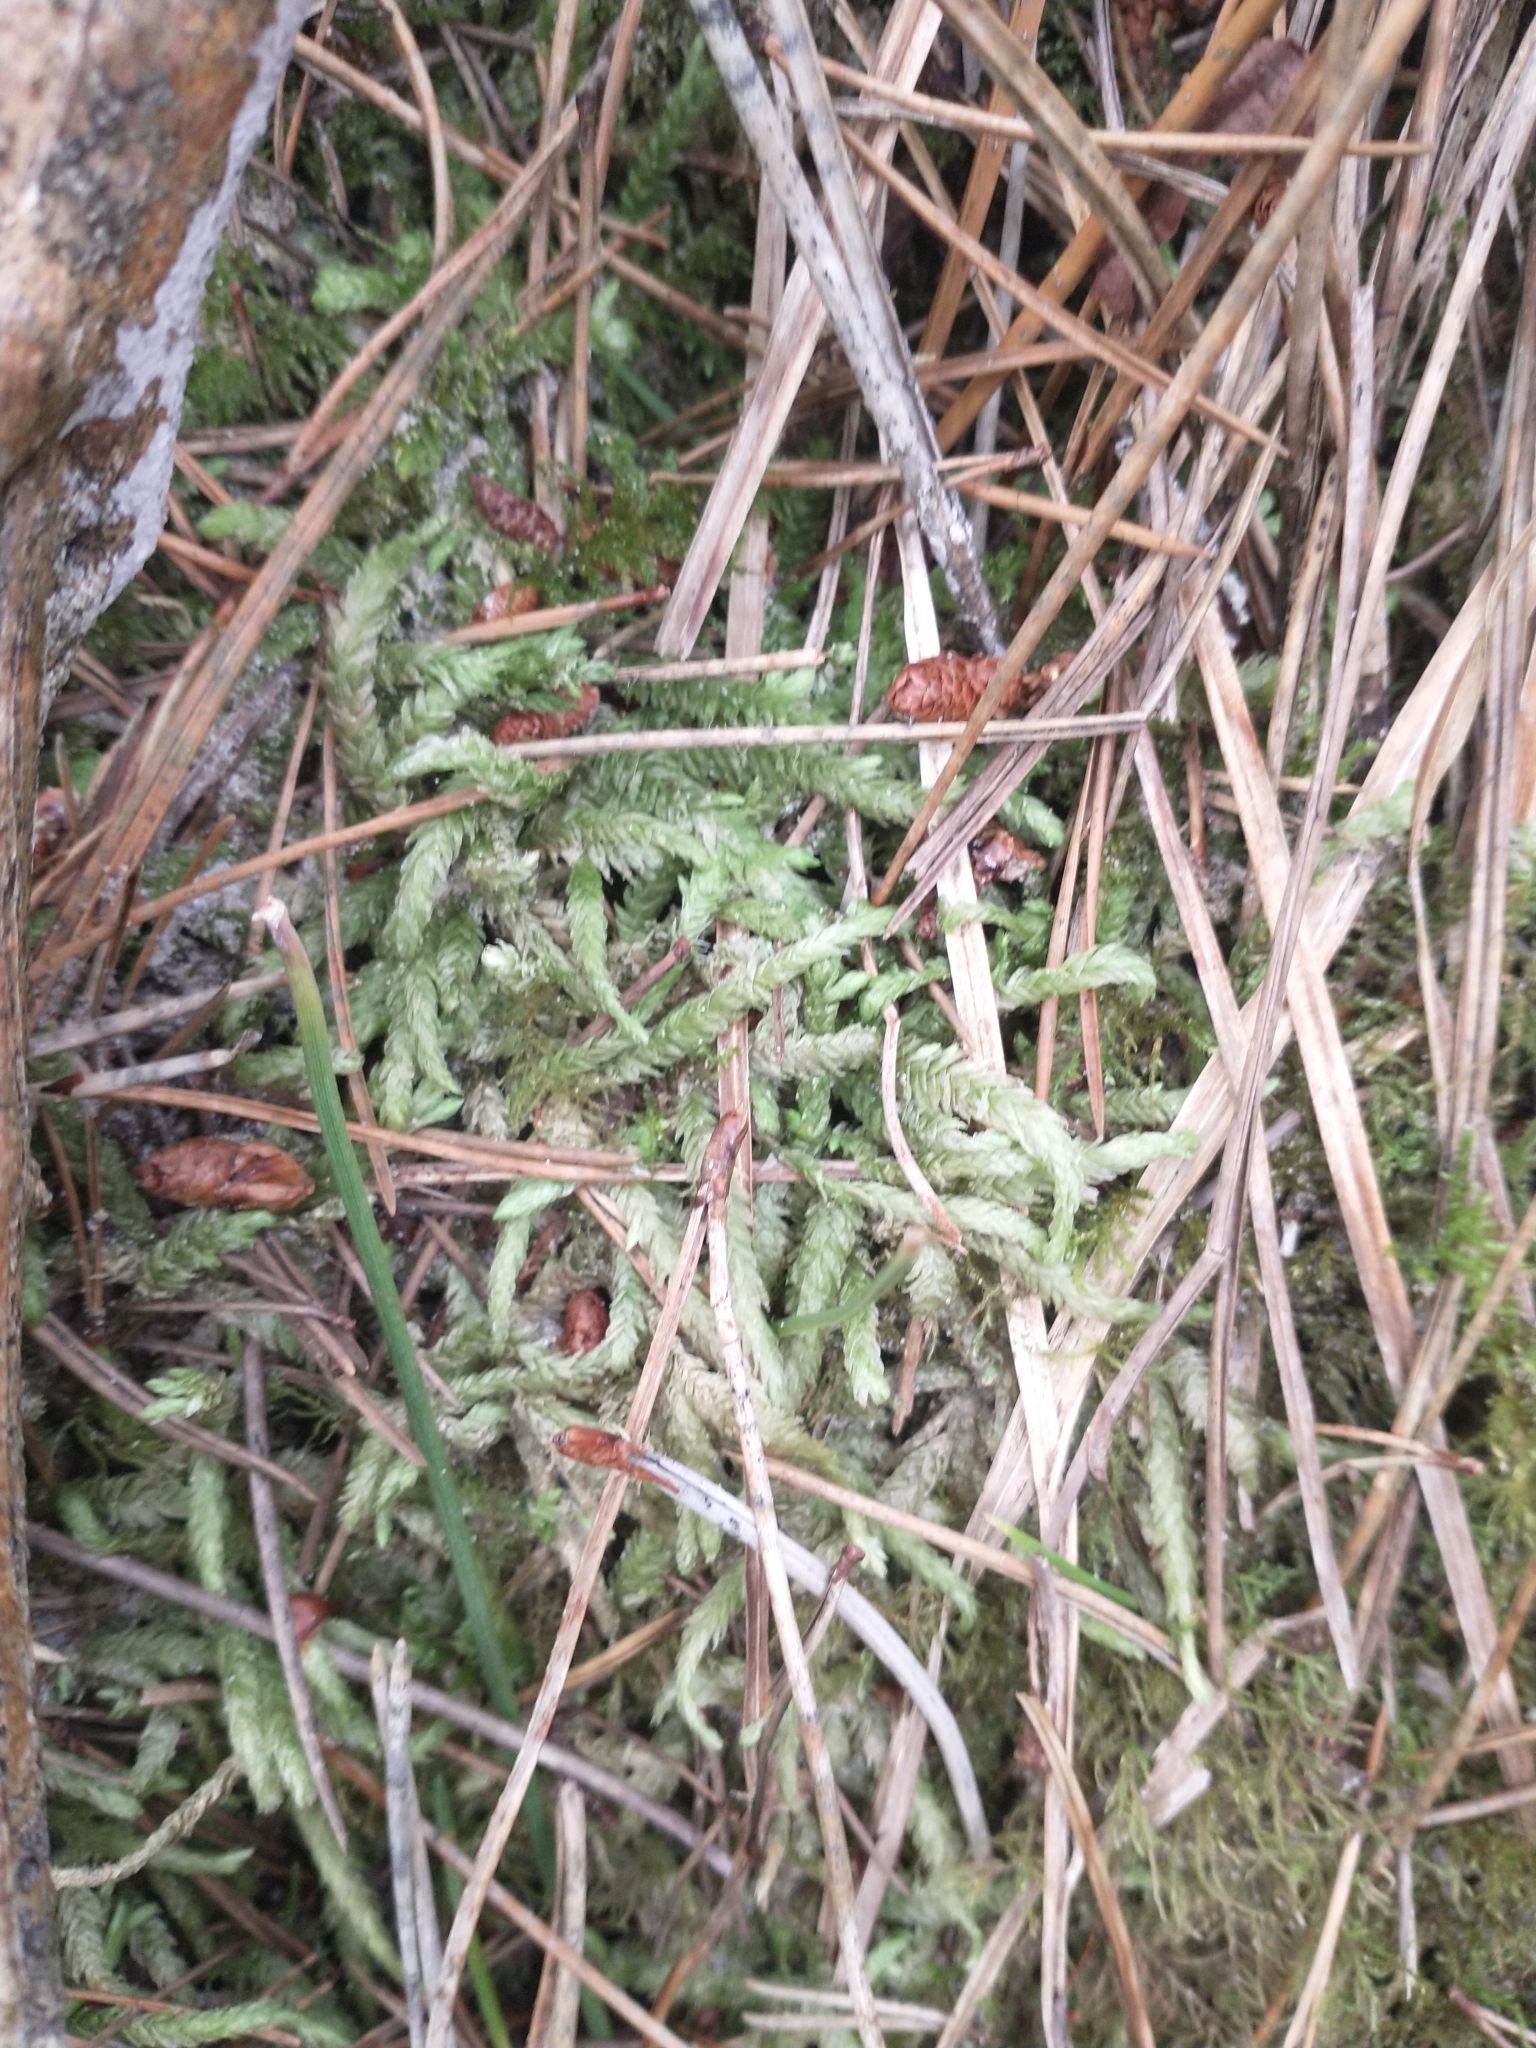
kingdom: Plantae
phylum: Bryophyta
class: Bryopsida
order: Hypnales
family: Plagiotheciaceae
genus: Plagiothecium
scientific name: Plagiothecium undulatum
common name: Waved silk-moss
